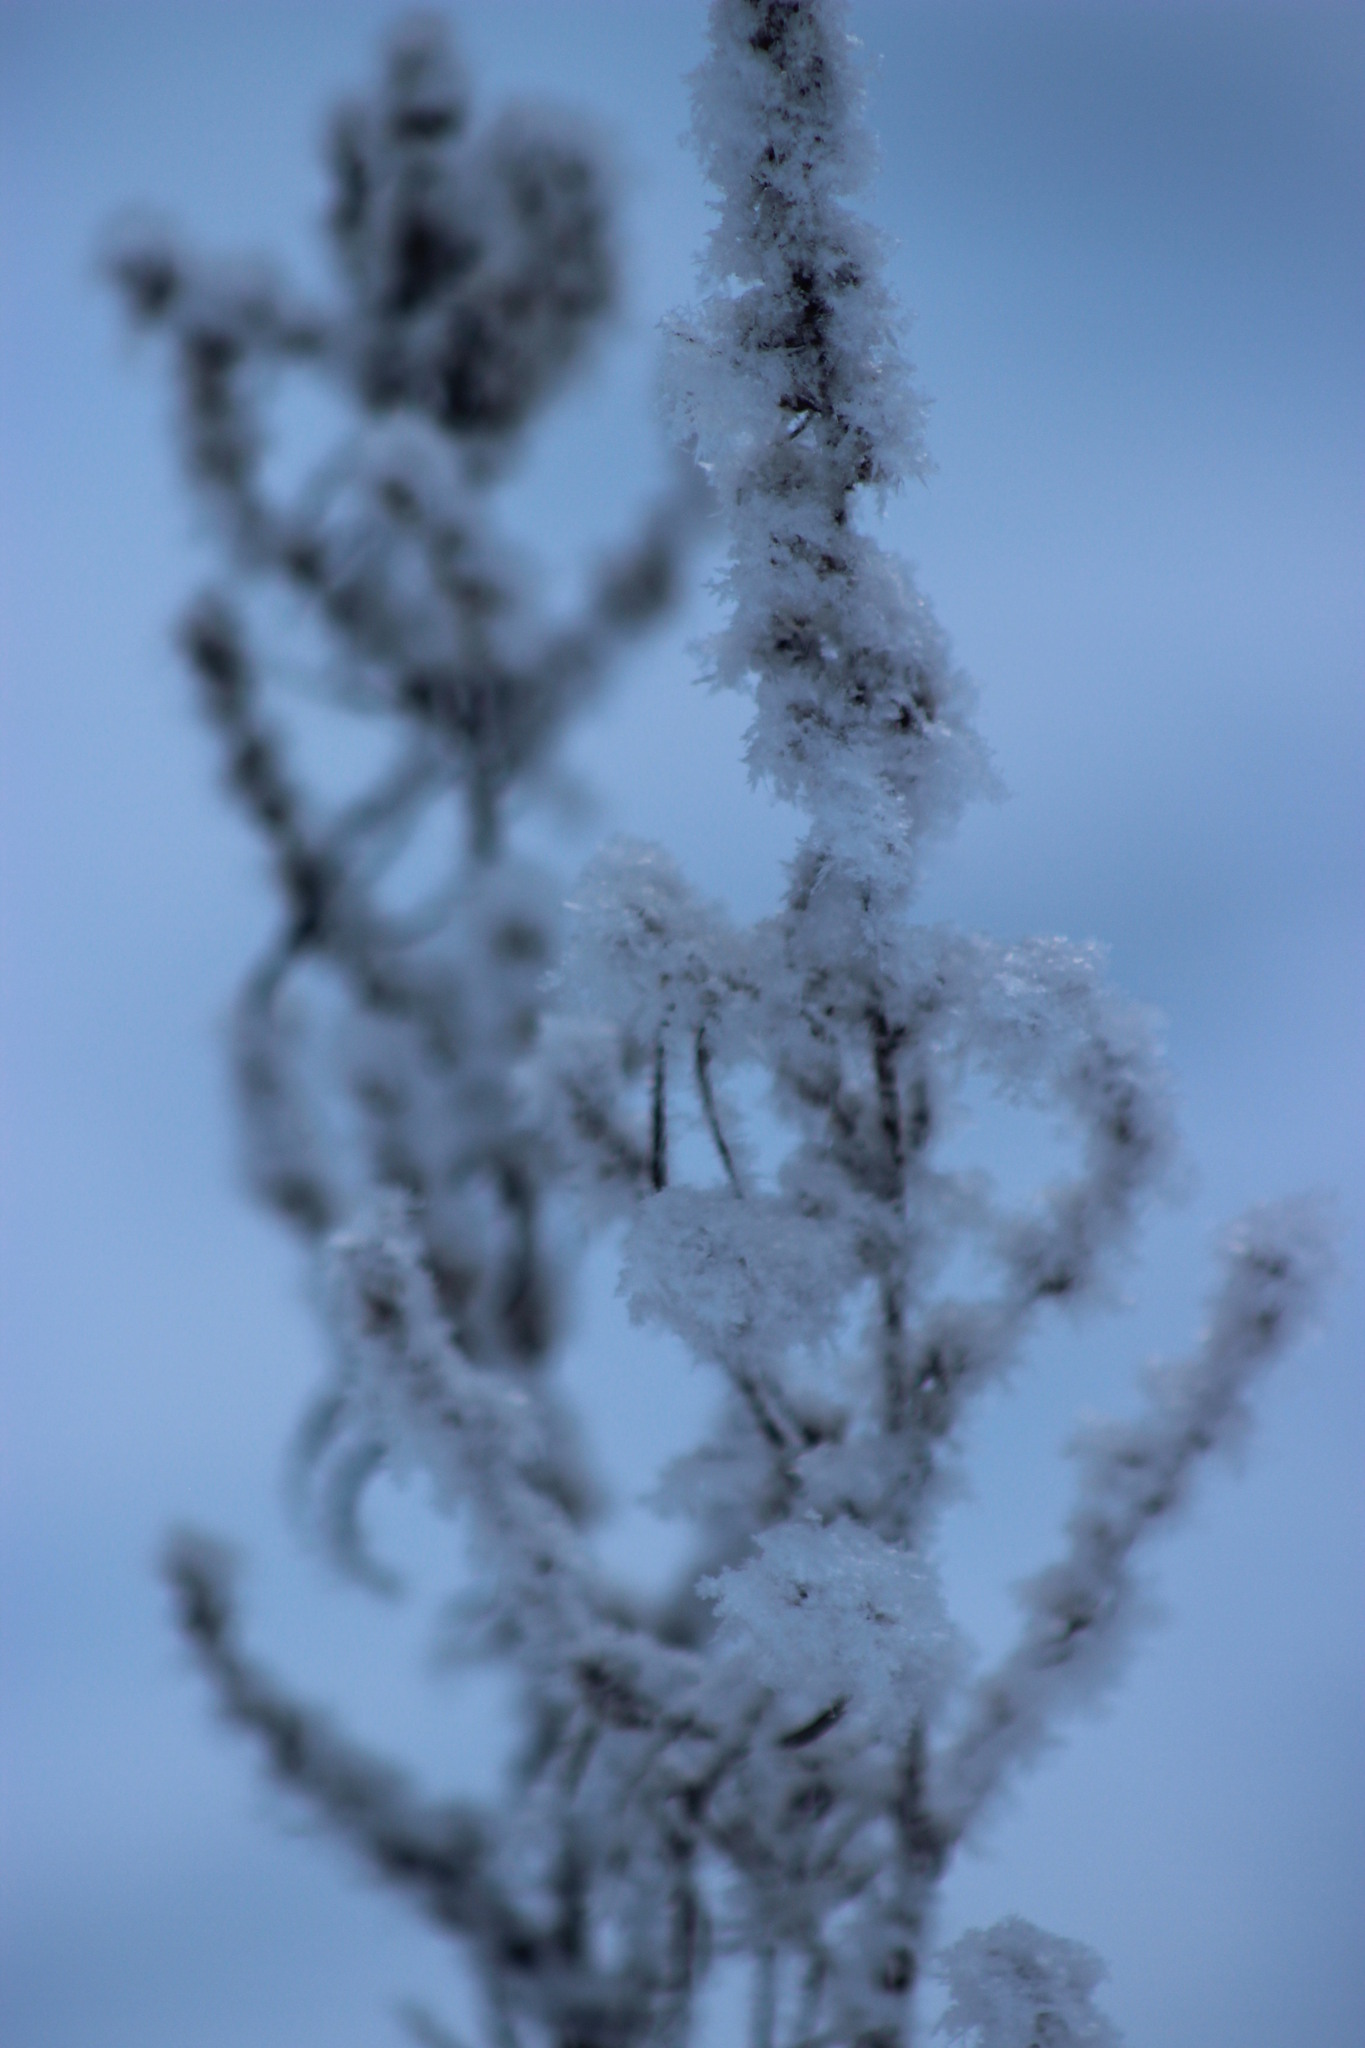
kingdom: Plantae
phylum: Tracheophyta
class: Magnoliopsida
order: Asterales
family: Asteraceae
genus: Artemisia
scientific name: Artemisia vulgaris
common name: Mugwort
